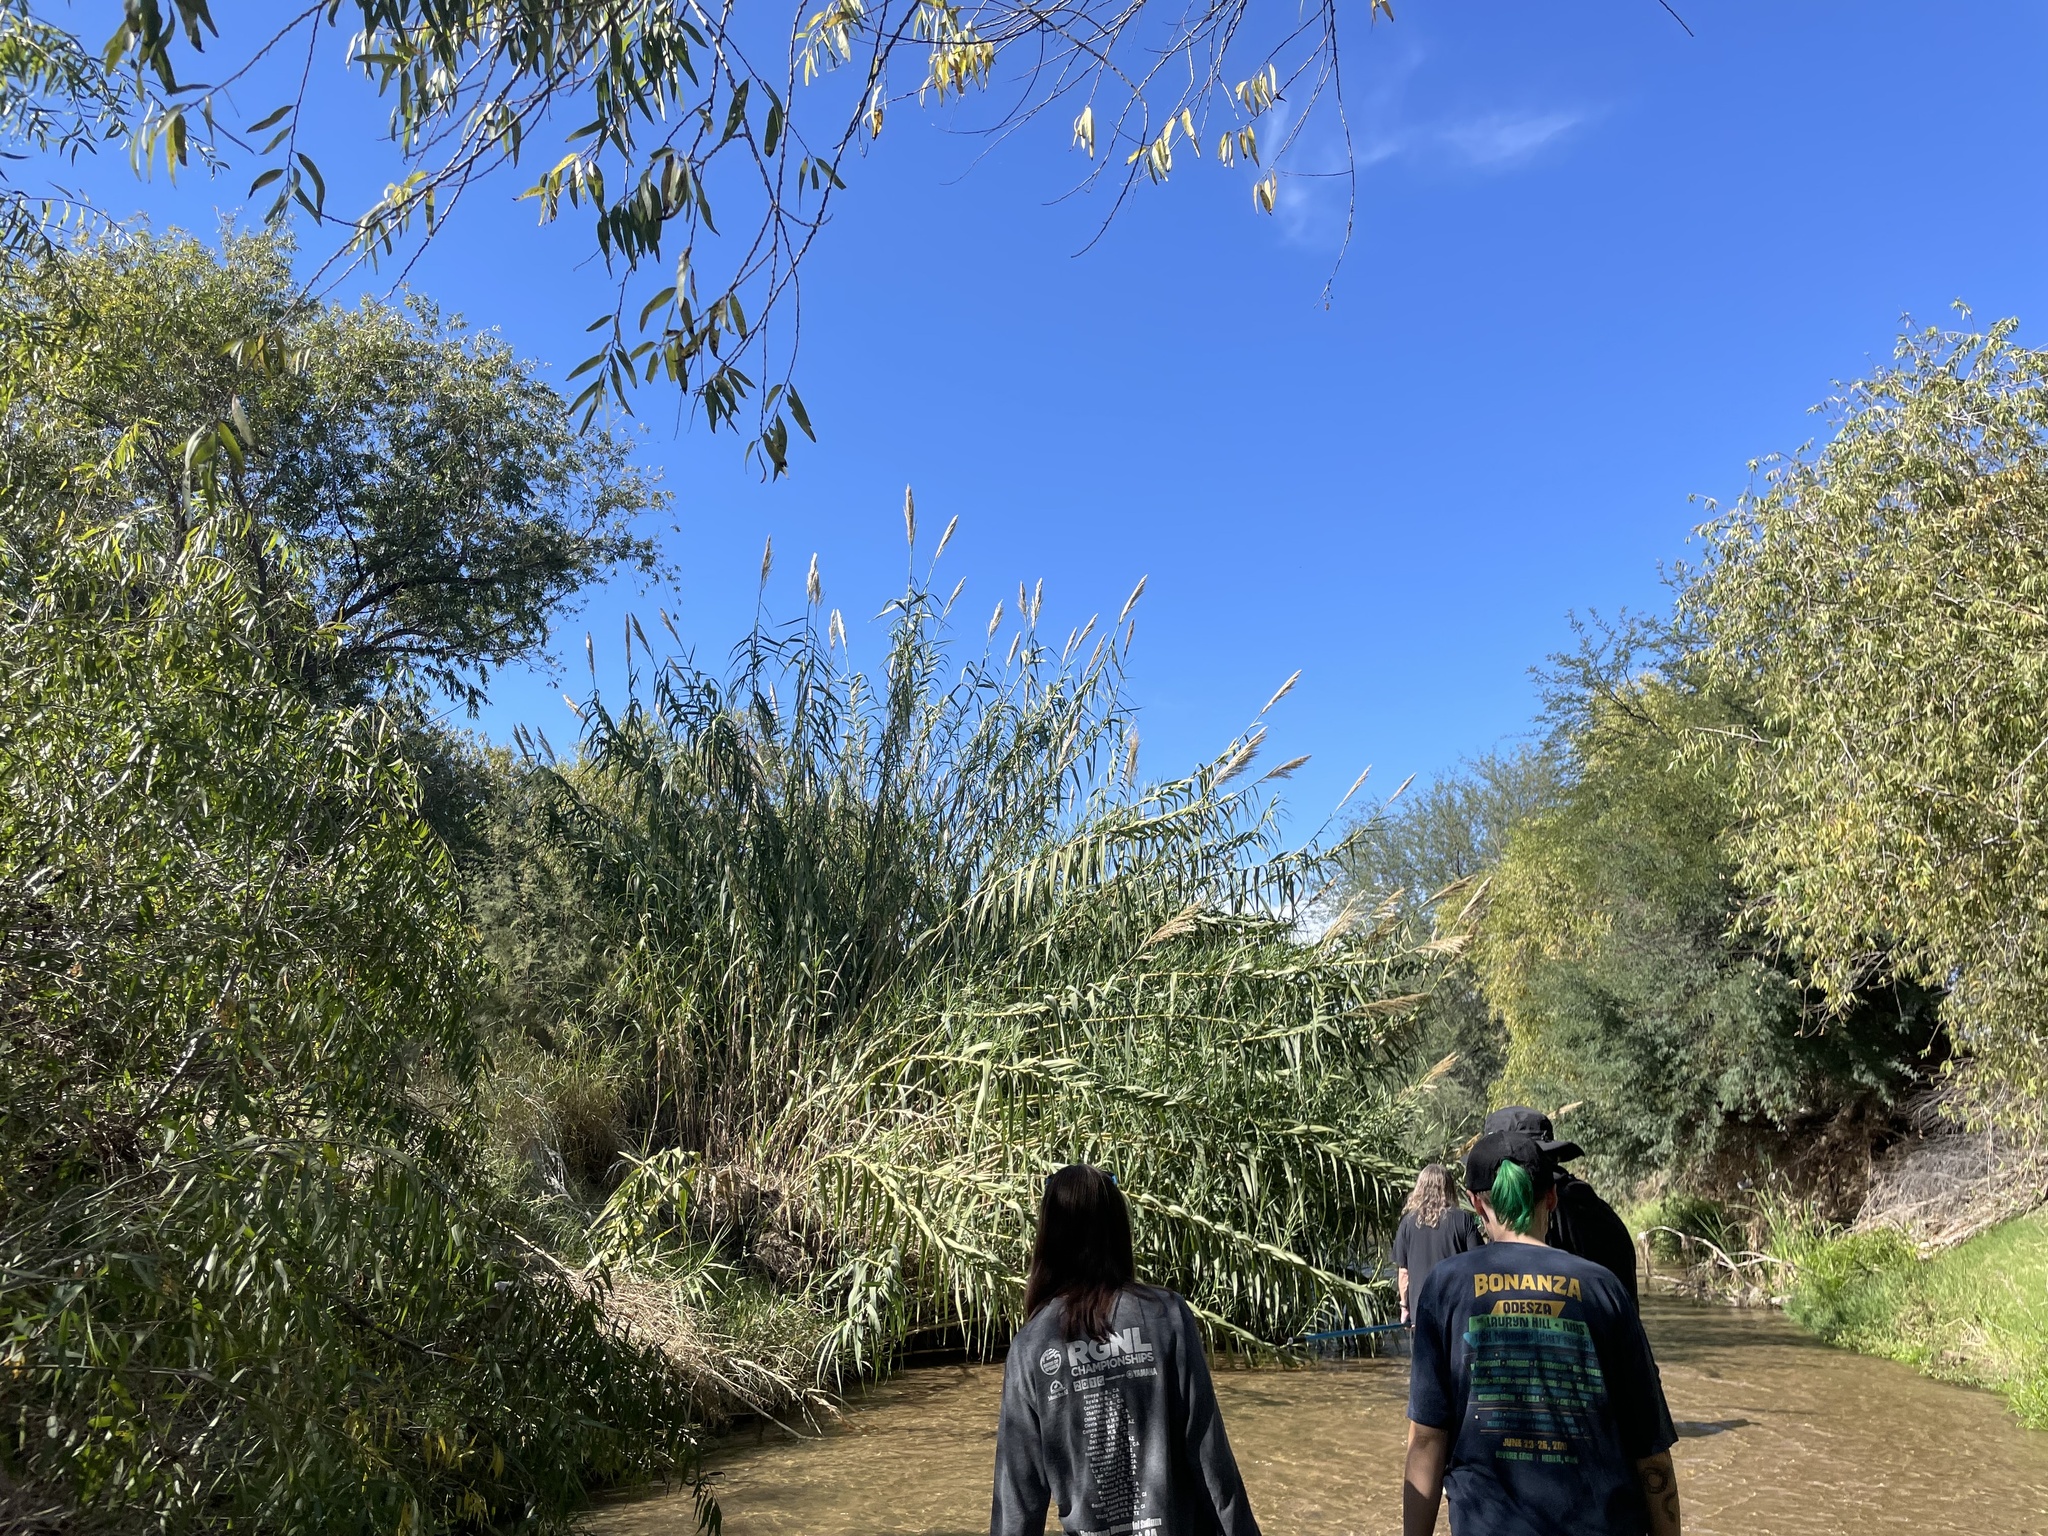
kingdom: Plantae
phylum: Tracheophyta
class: Liliopsida
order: Poales
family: Poaceae
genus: Arundo
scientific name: Arundo donax
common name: Giant reed
